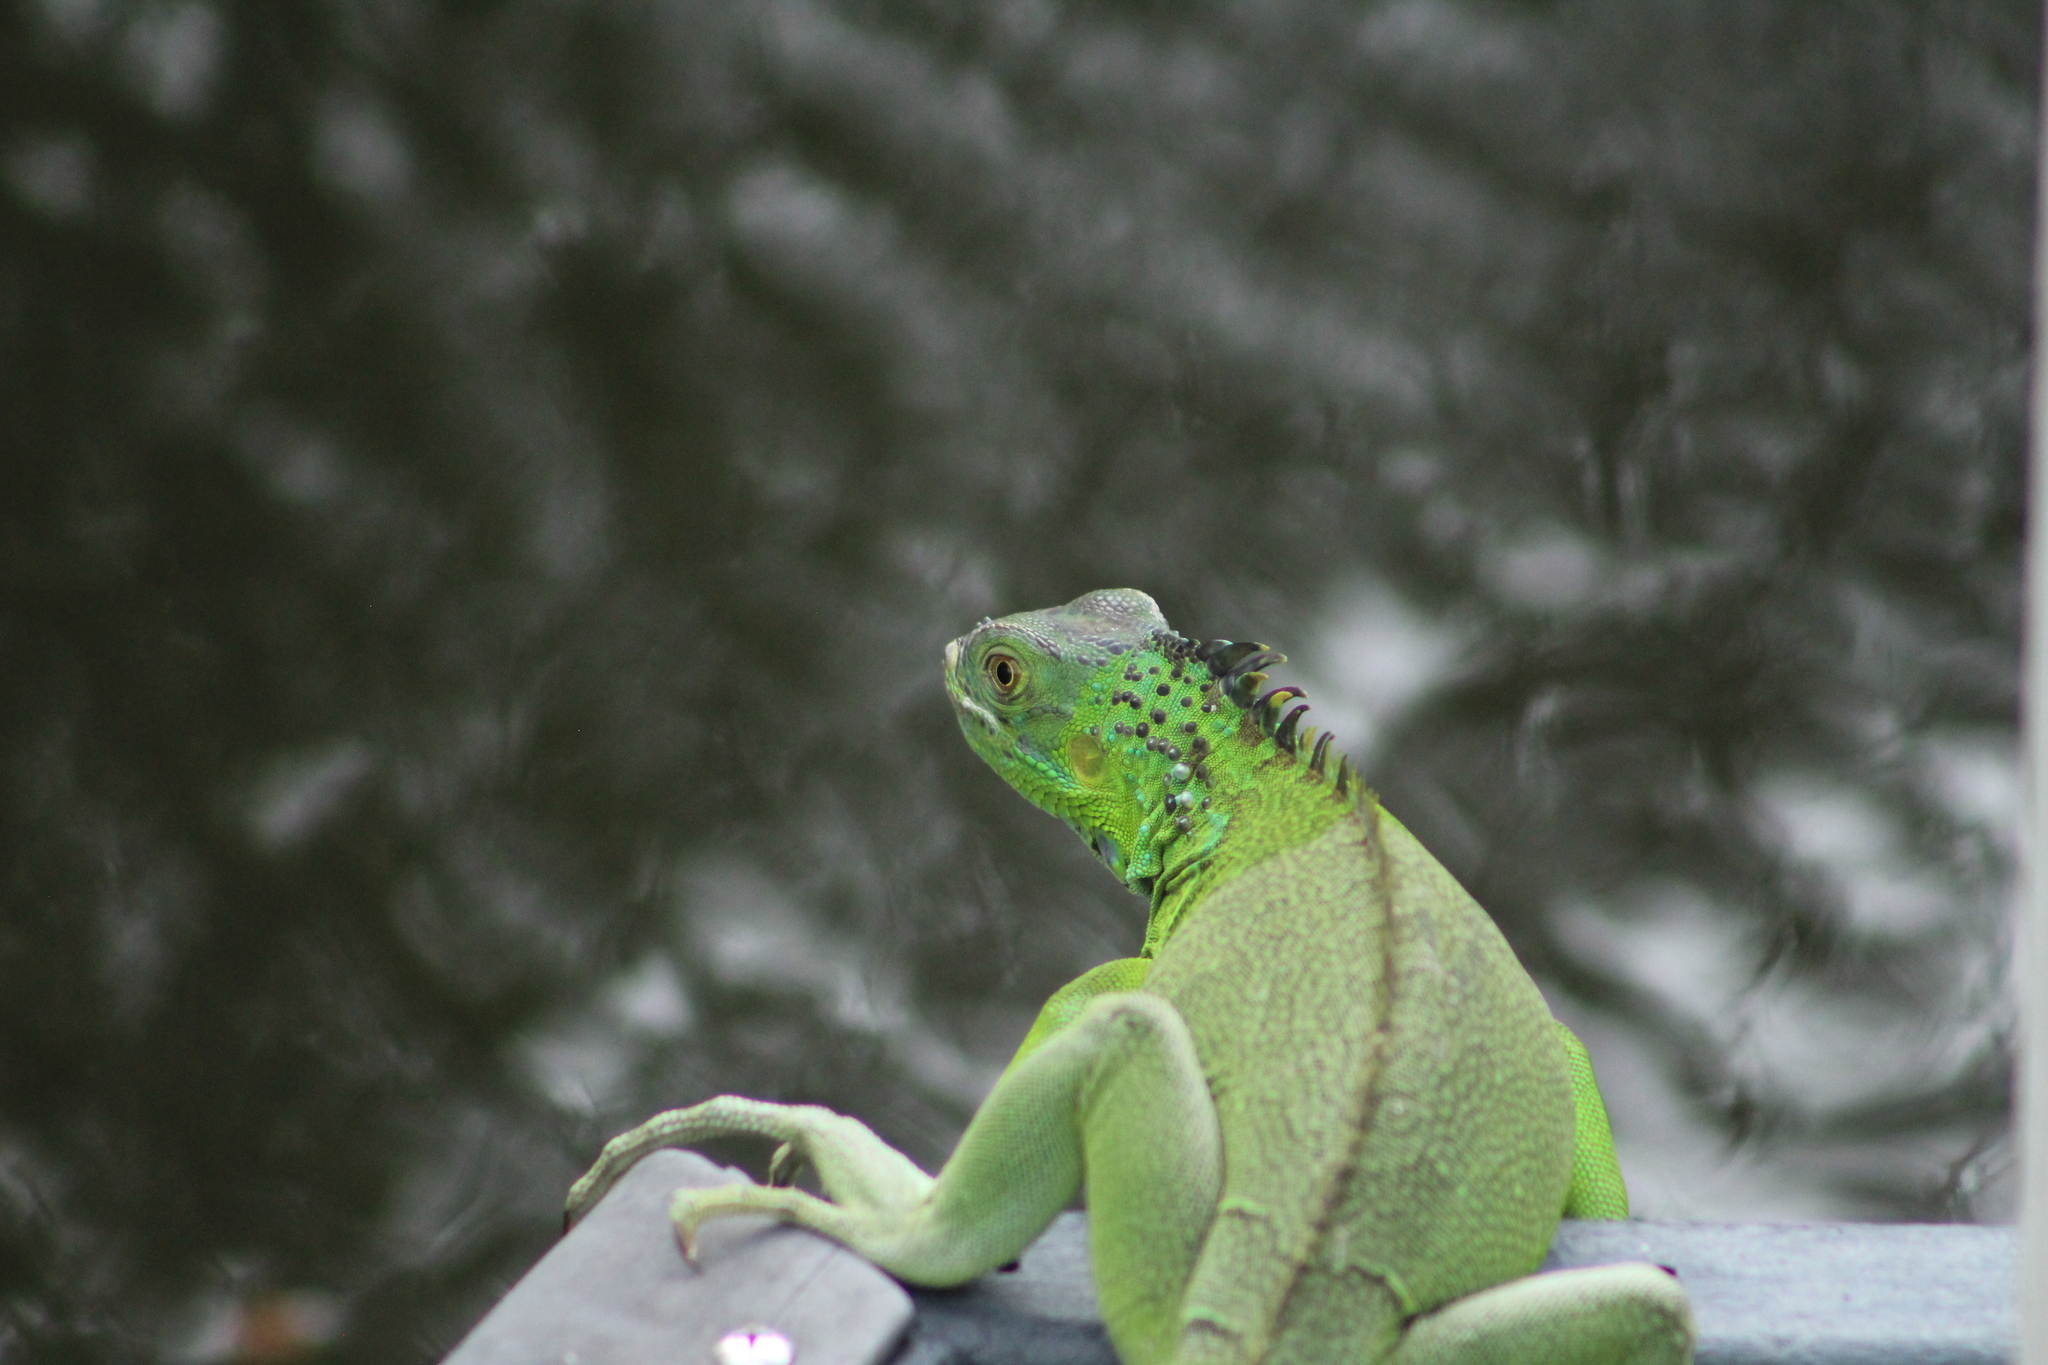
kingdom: Animalia
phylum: Chordata
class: Squamata
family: Iguanidae
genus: Iguana
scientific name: Iguana iguana
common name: Green iguana
